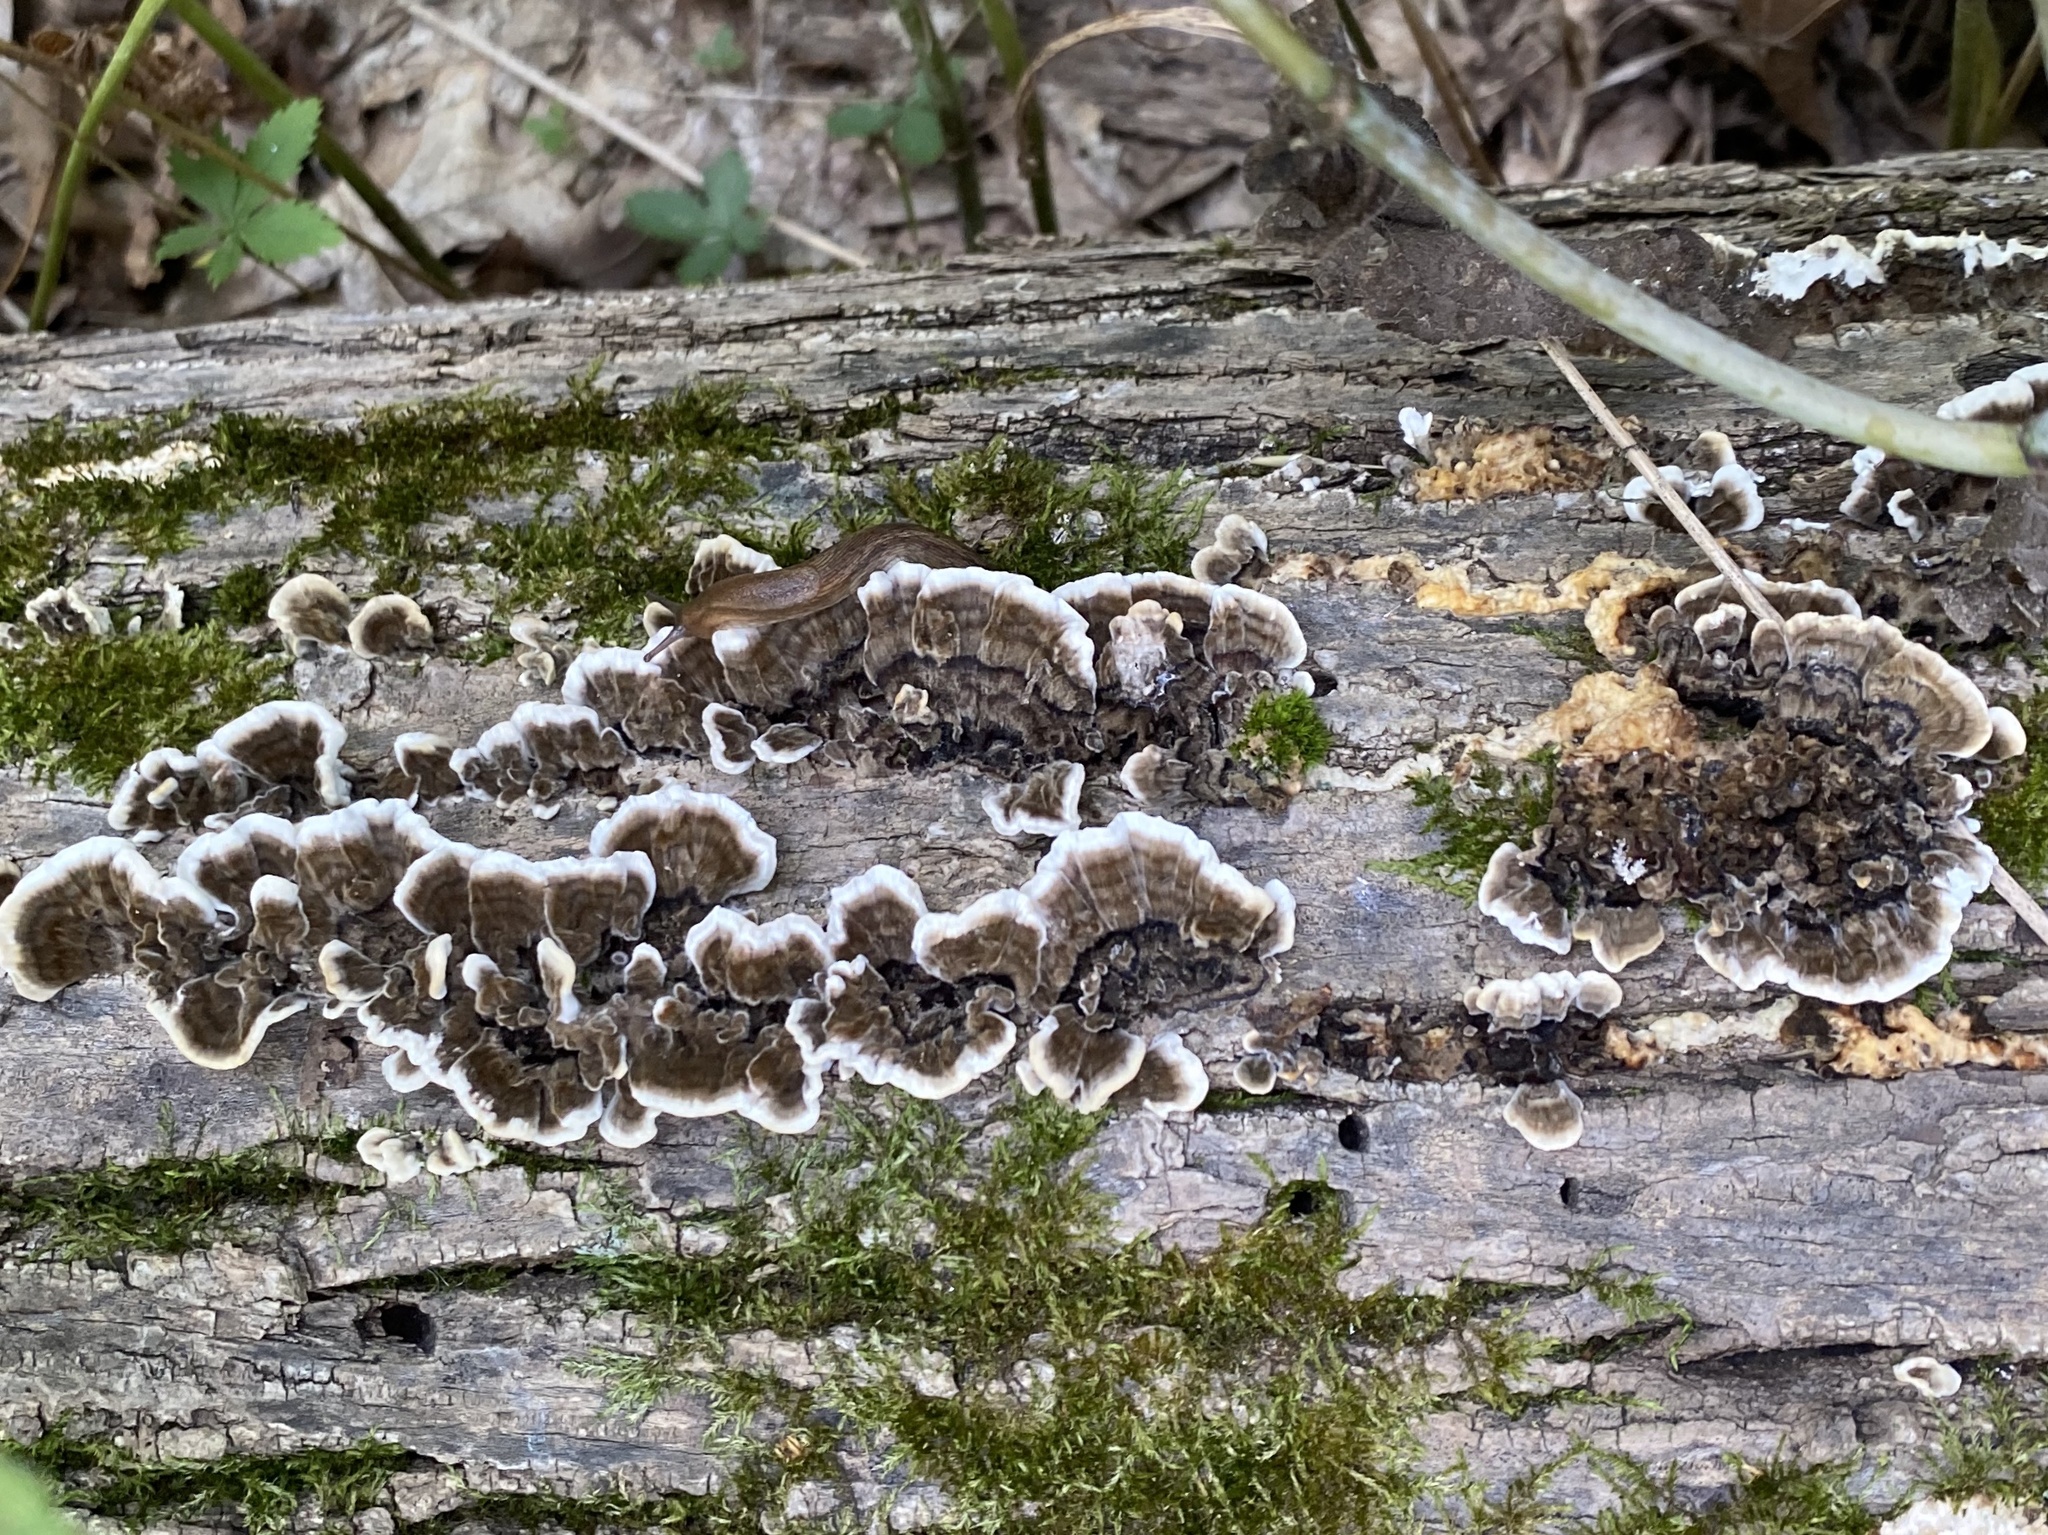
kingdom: Fungi
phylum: Basidiomycota
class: Agaricomycetes
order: Polyporales
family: Polyporaceae
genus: Trametes
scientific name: Trametes versicolor
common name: Turkeytail
